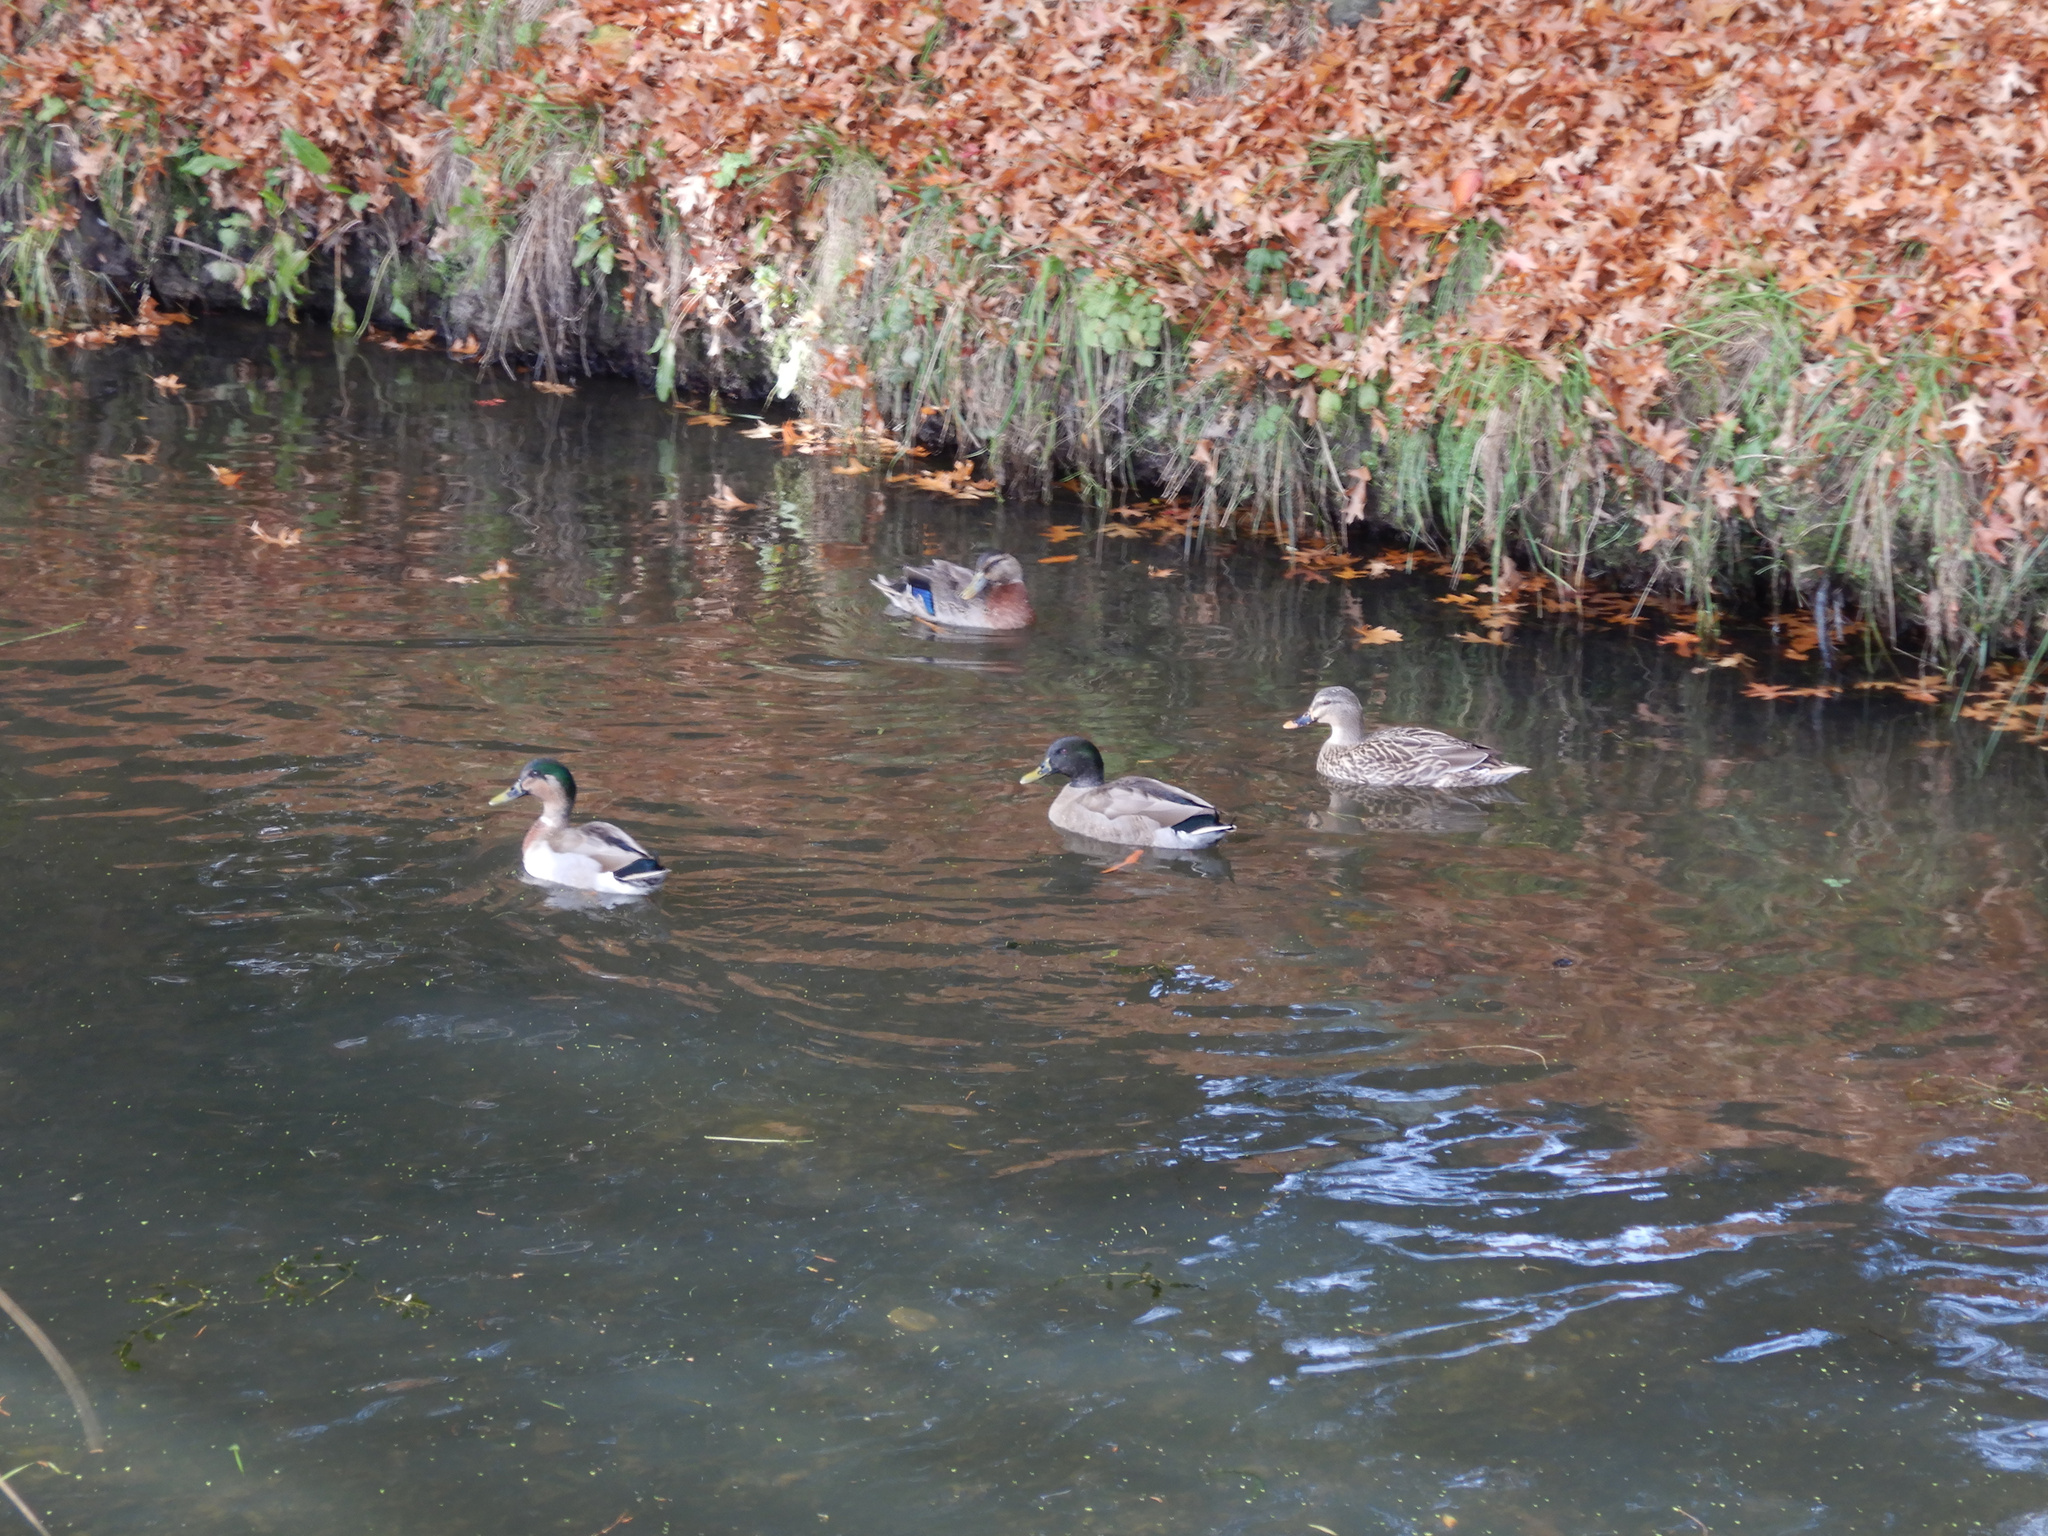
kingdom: Animalia
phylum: Chordata
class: Aves
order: Anseriformes
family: Anatidae
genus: Anas
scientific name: Anas
